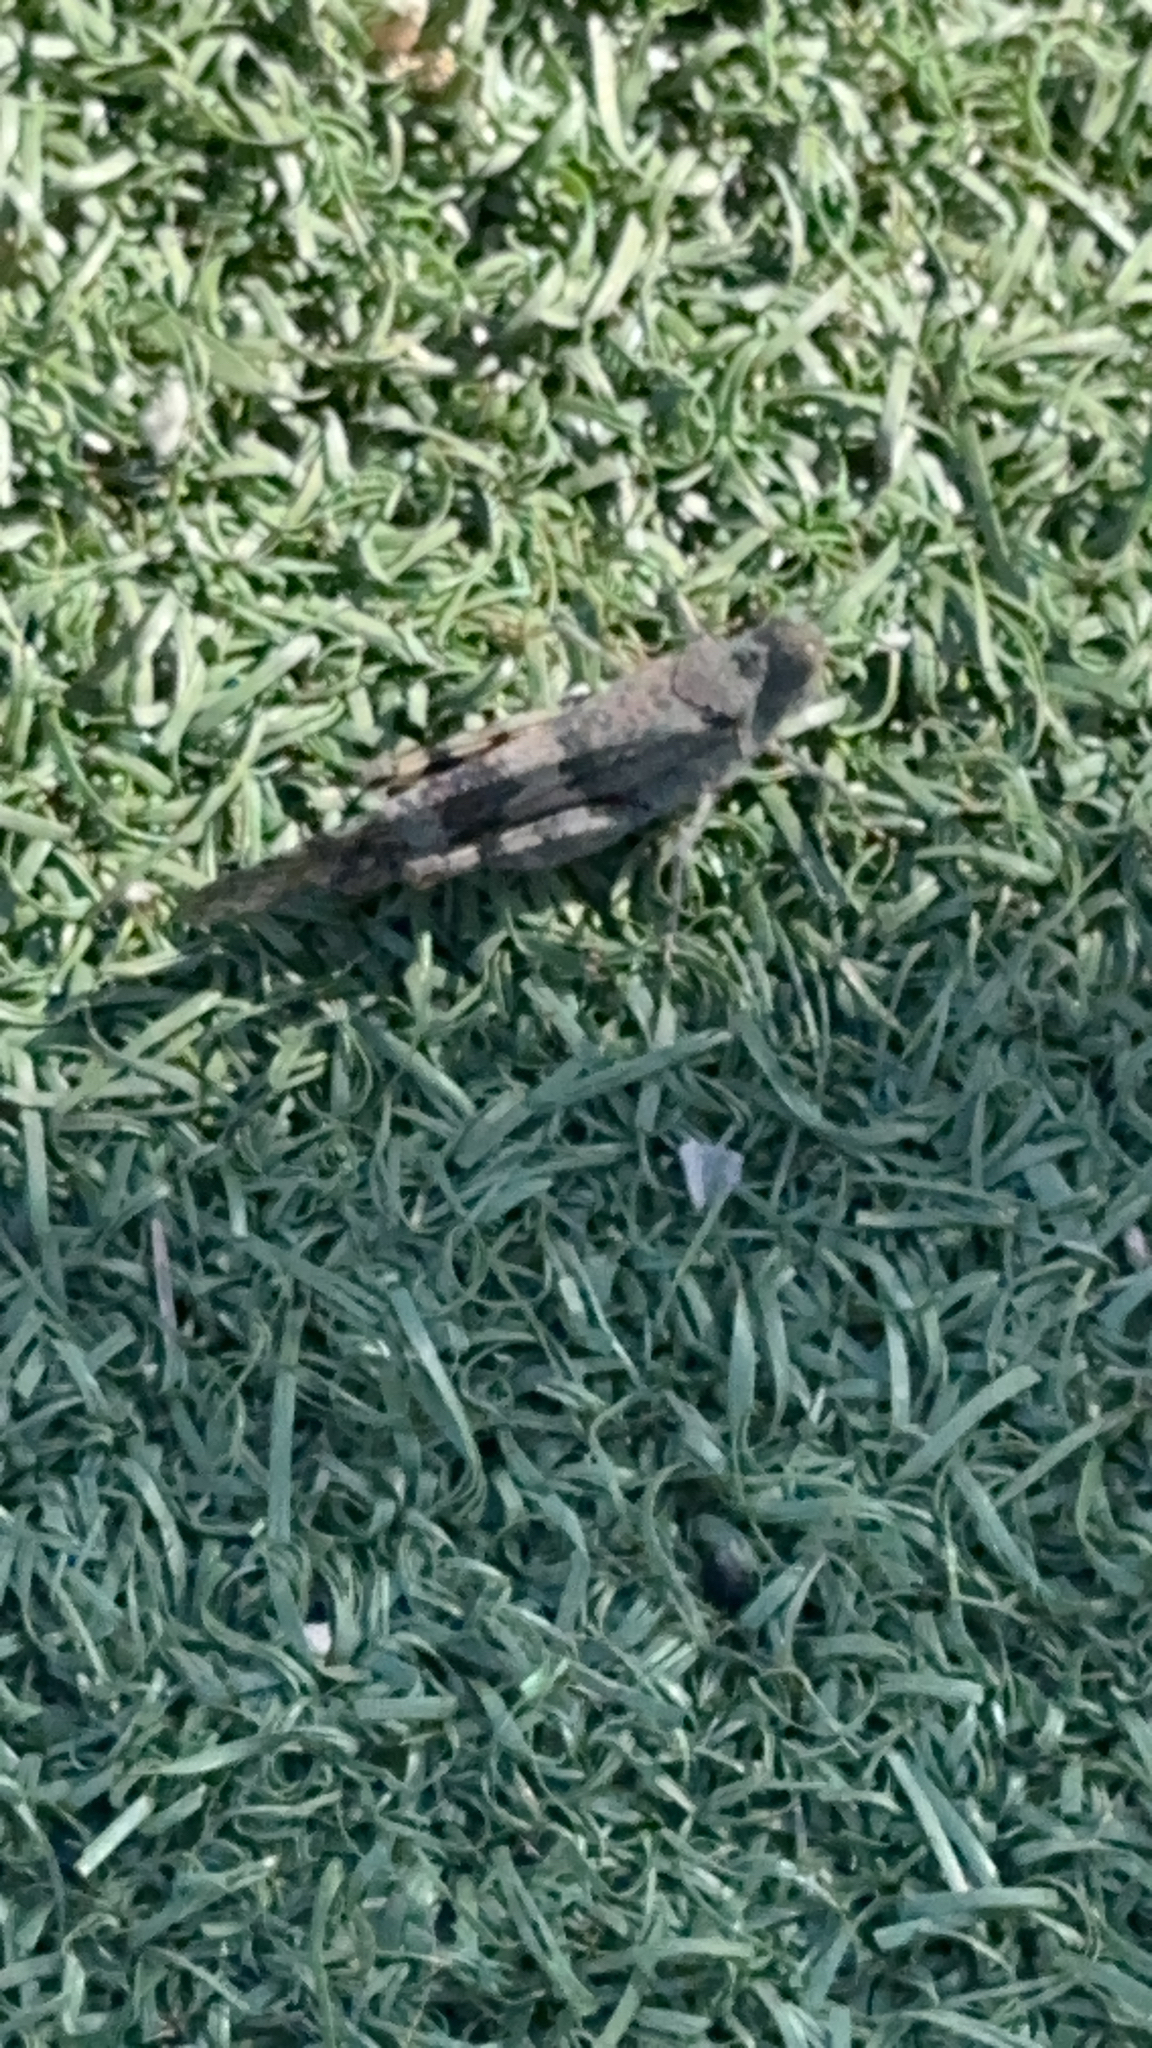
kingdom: Animalia
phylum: Arthropoda
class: Insecta
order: Orthoptera
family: Acrididae
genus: Trimerotropis
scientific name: Trimerotropis pallidipennis
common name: Pallid-winged grasshopper
